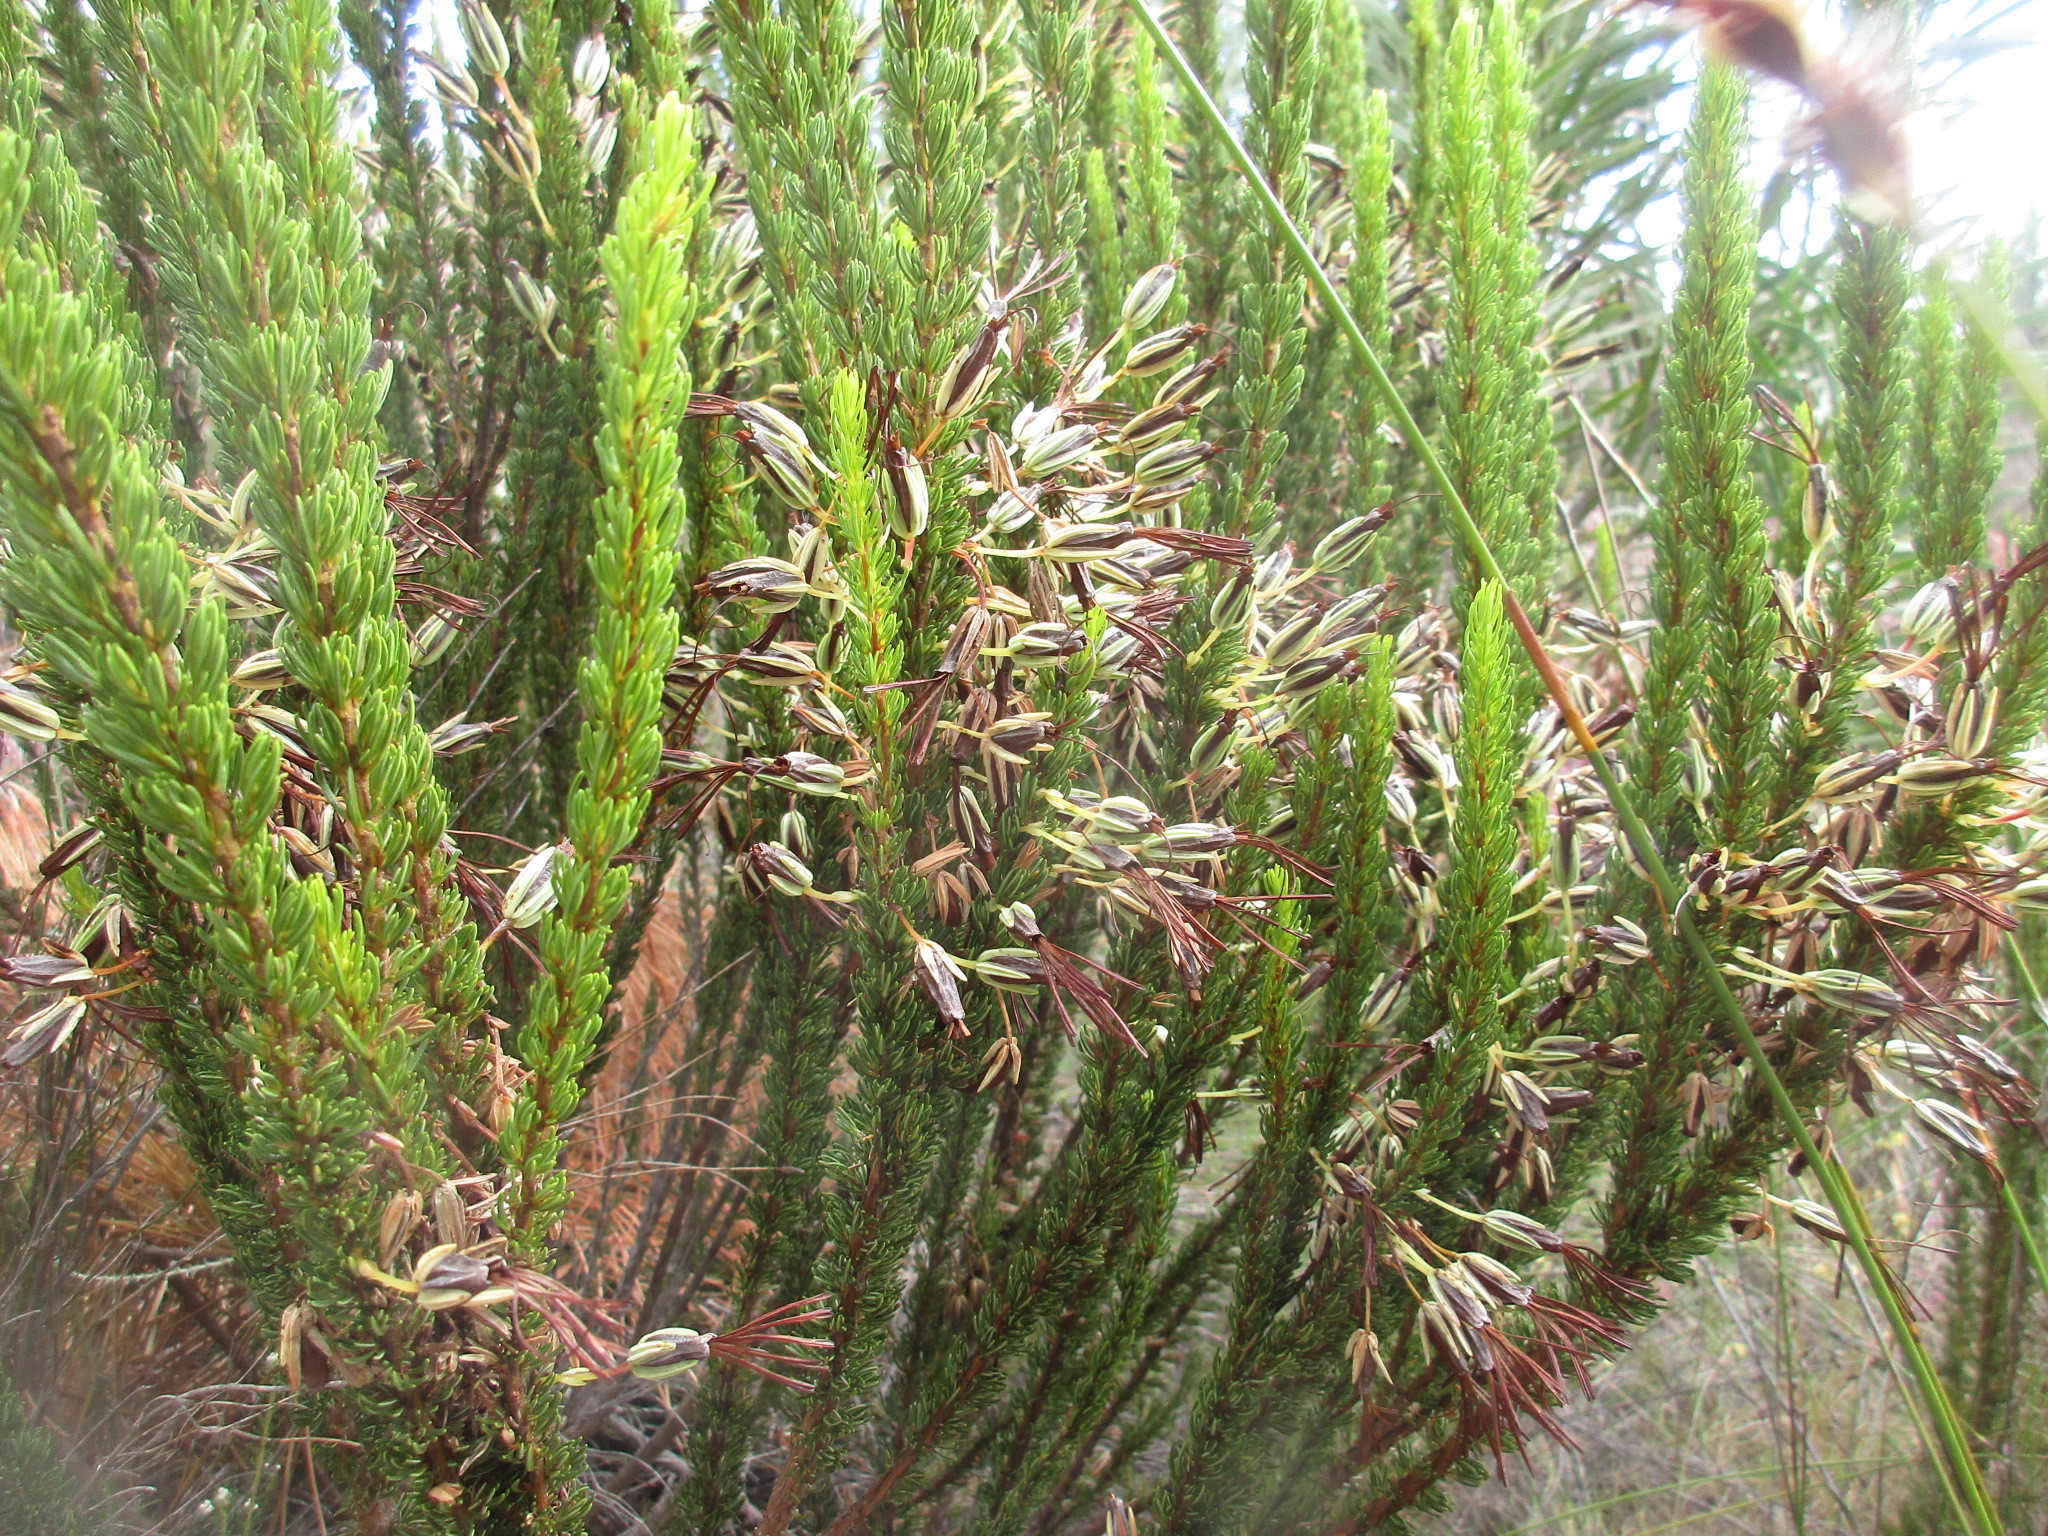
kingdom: Plantae
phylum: Tracheophyta
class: Magnoliopsida
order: Ericales
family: Ericaceae
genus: Erica
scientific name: Erica plukenetii
